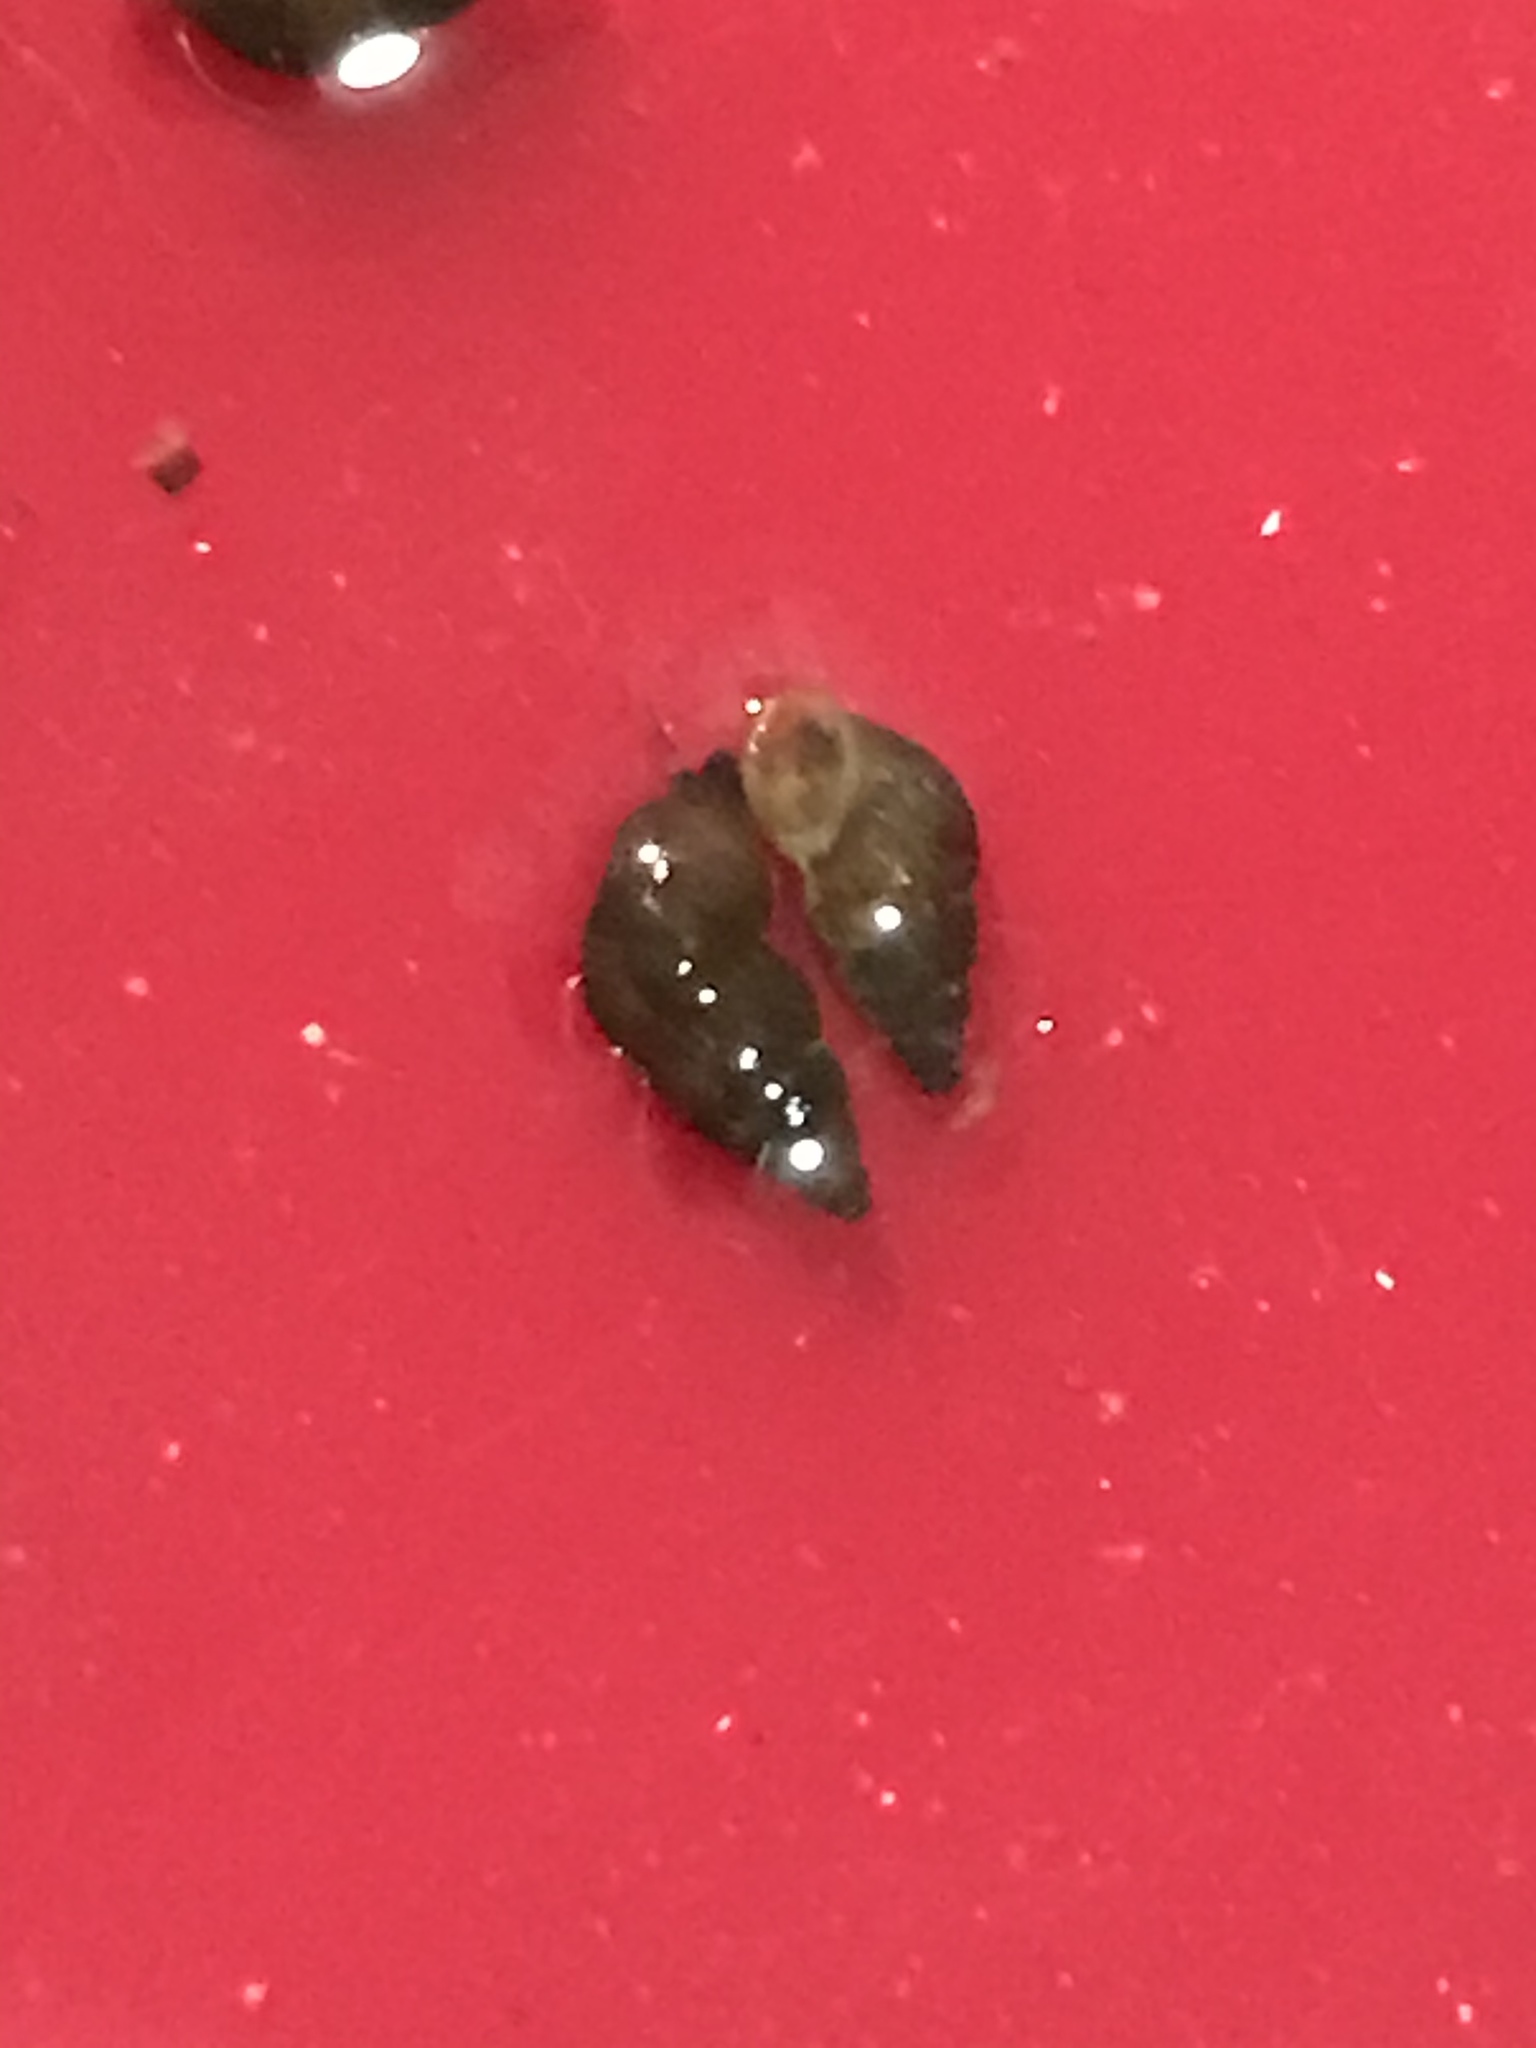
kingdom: Animalia
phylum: Mollusca
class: Gastropoda
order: Littorinimorpha
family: Tateidae
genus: Potamopyrgus
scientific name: Potamopyrgus antipodarum
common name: Jenkins' spire snail
